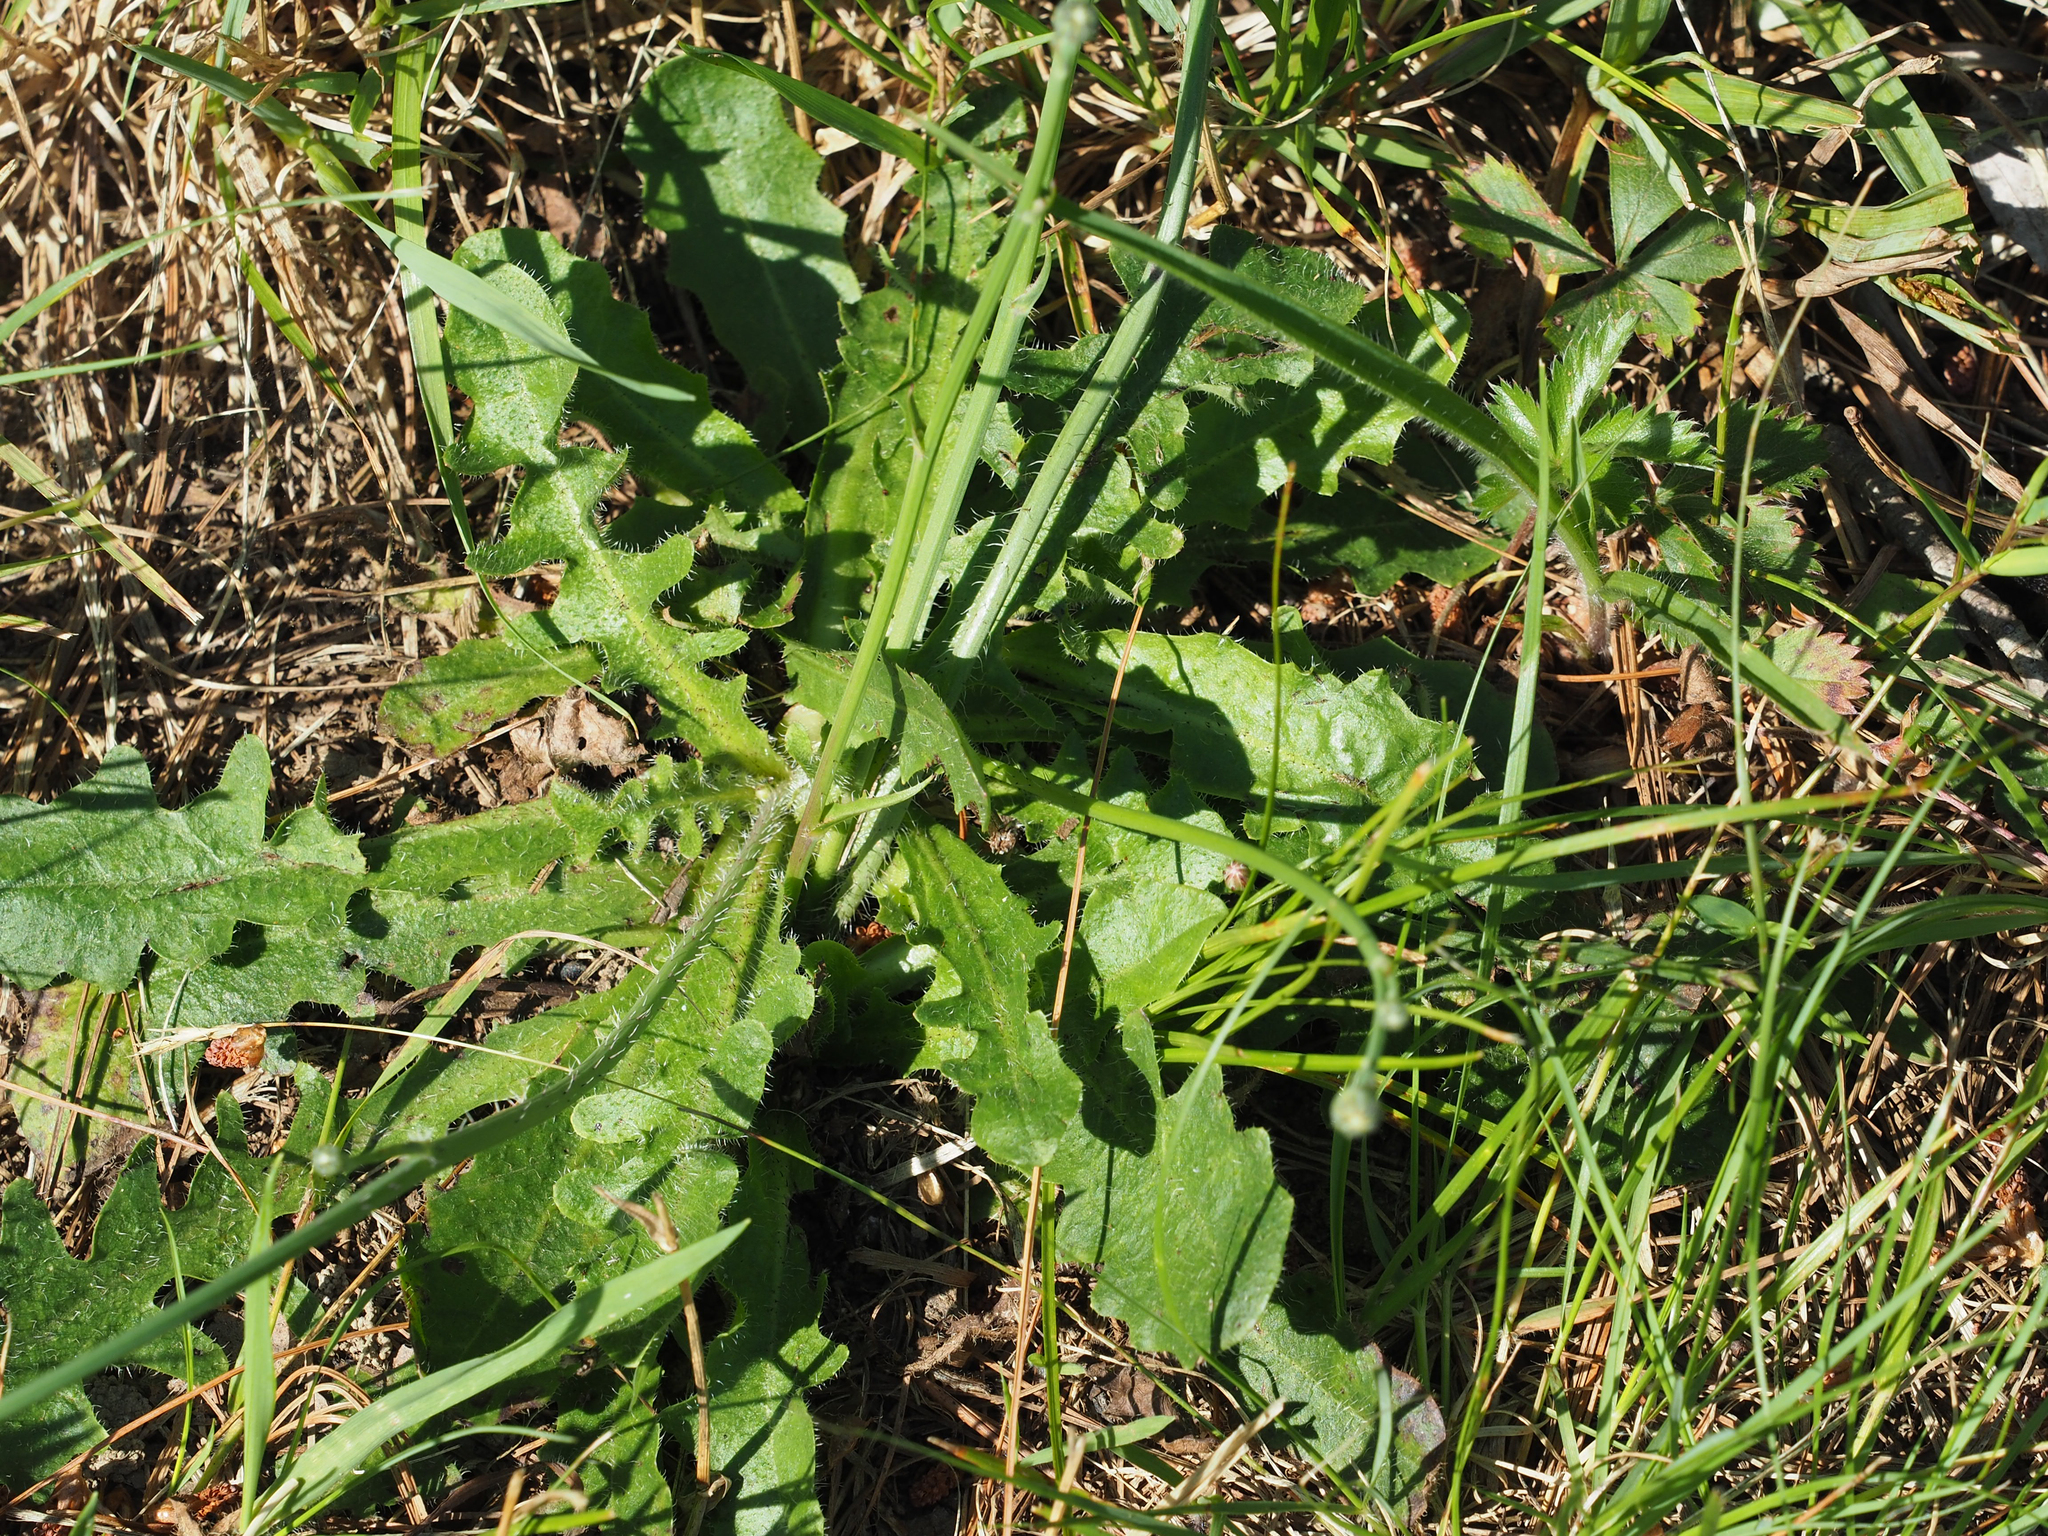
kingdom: Plantae
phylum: Tracheophyta
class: Magnoliopsida
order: Asterales
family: Asteraceae
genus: Hypochaeris
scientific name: Hypochaeris radicata
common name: Flatweed
